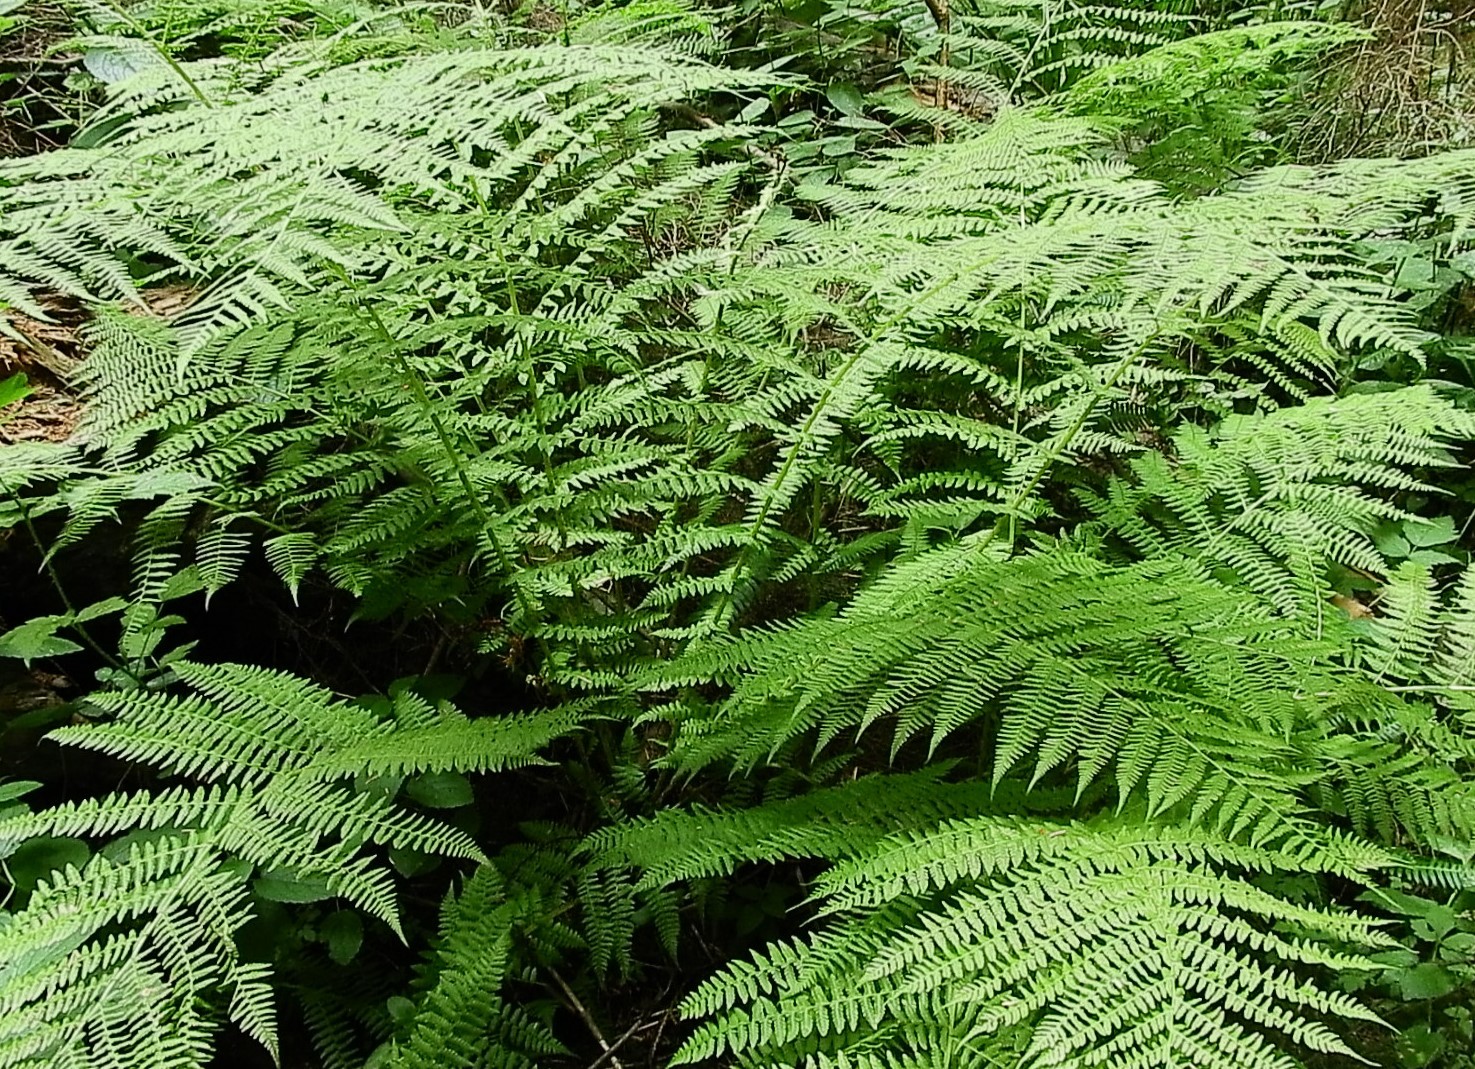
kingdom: Plantae
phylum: Tracheophyta
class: Polypodiopsida
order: Polypodiales
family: Athyriaceae
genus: Athyrium
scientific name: Athyrium filix-femina
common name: Lady fern
